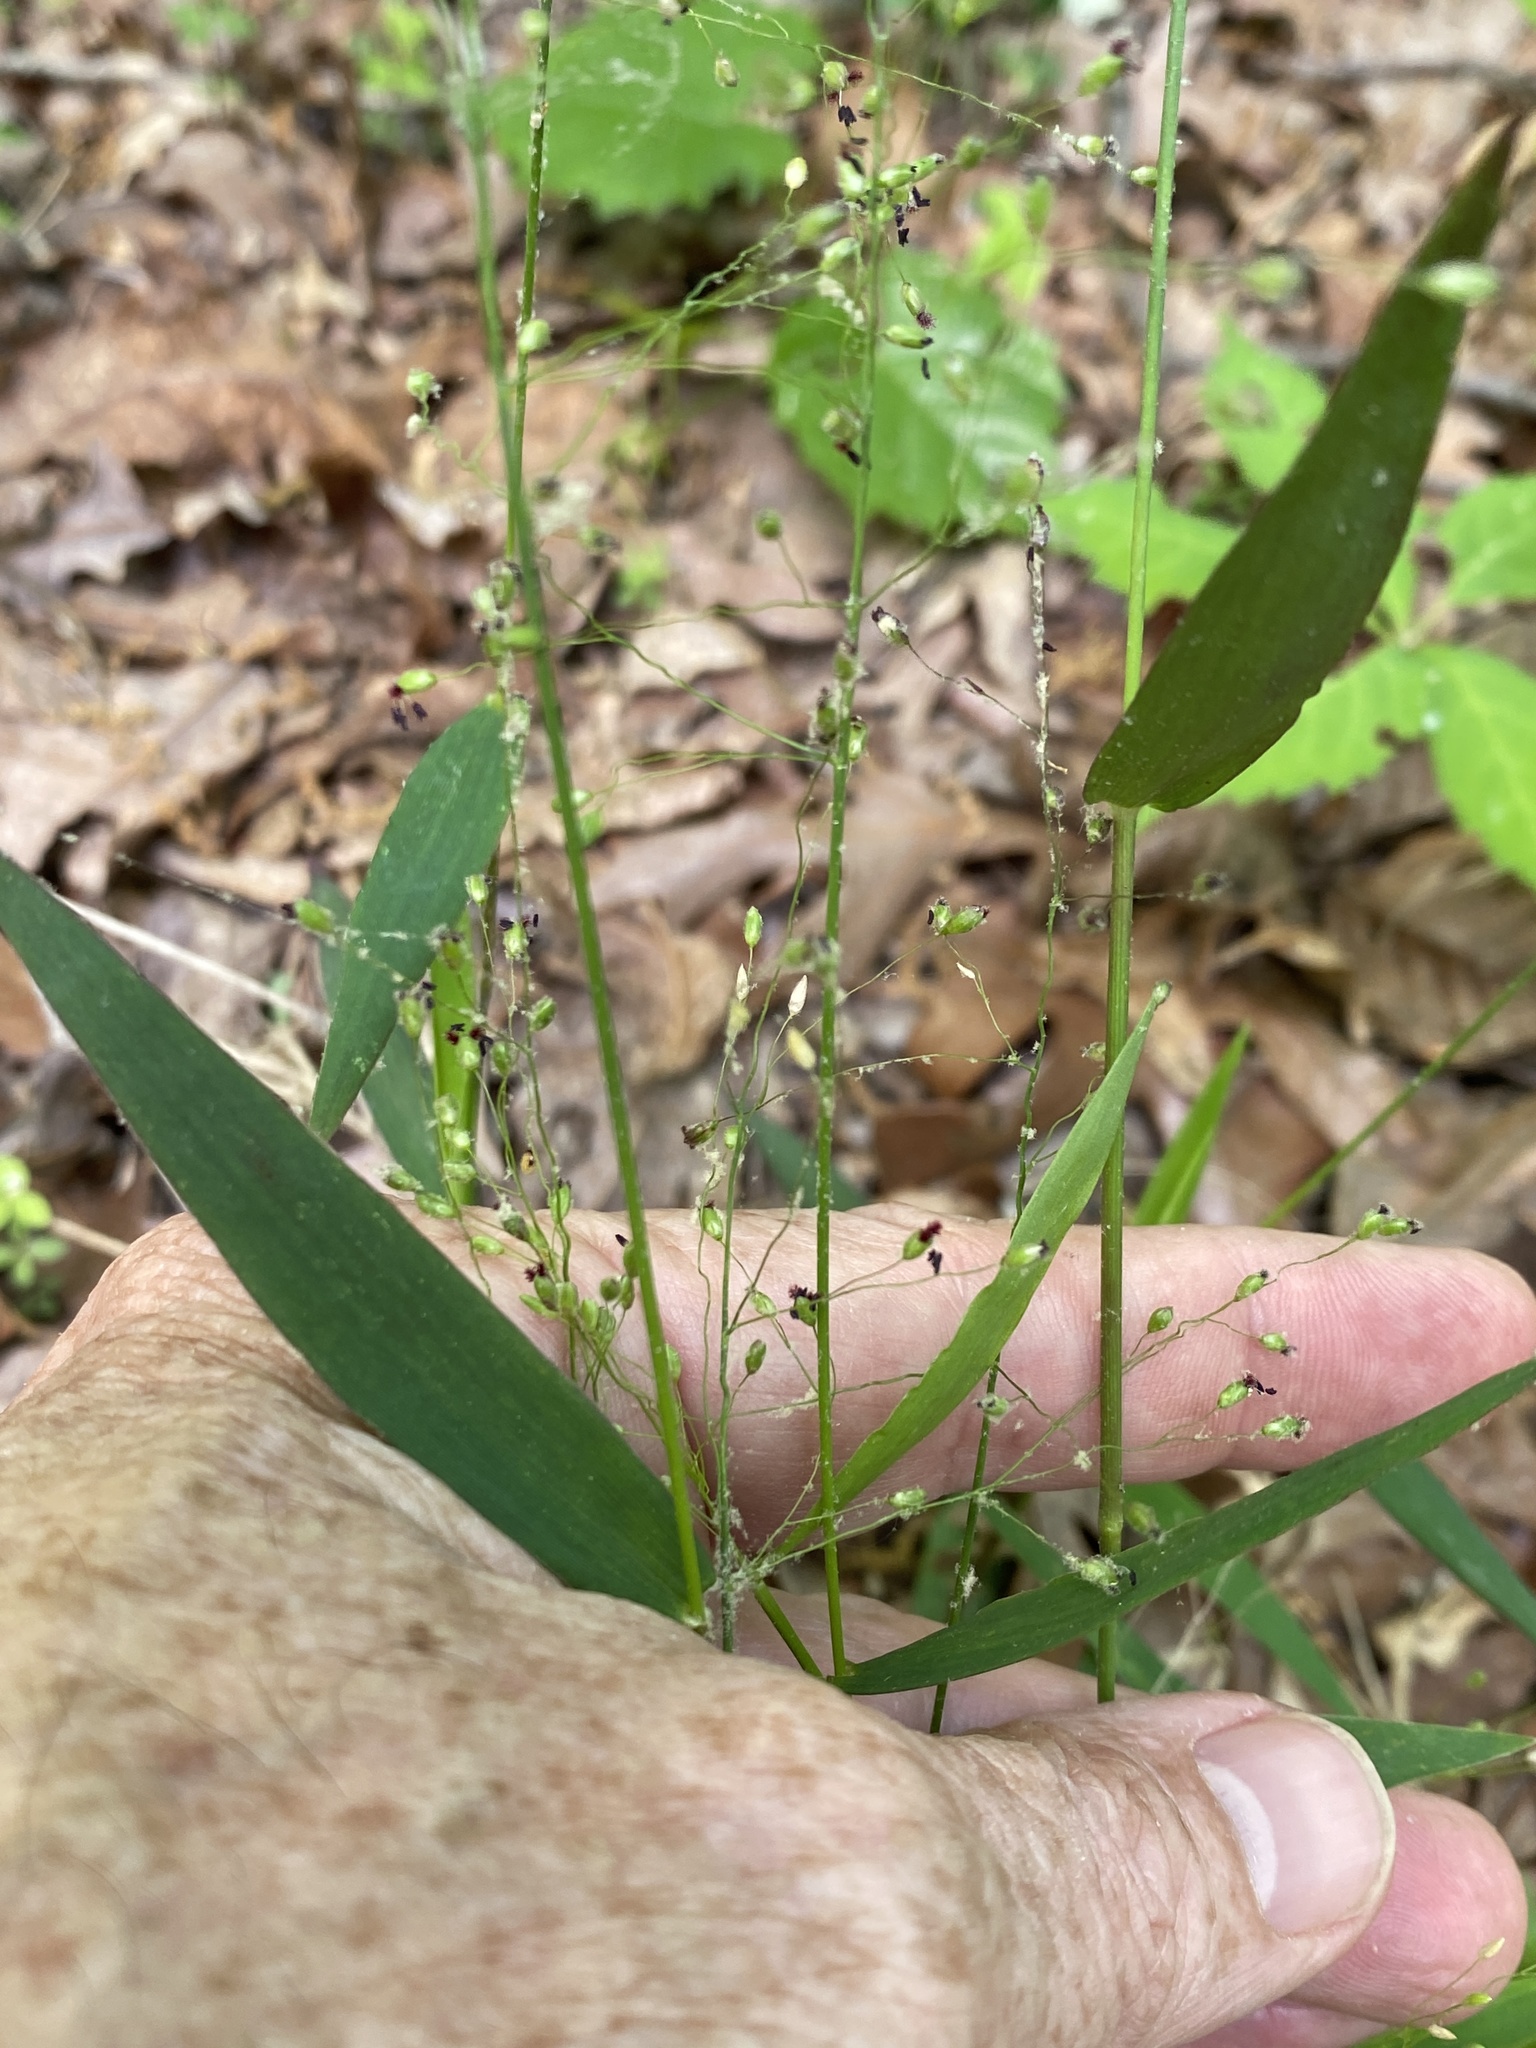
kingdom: Plantae
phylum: Tracheophyta
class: Liliopsida
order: Poales
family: Poaceae
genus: Dichanthelium
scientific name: Dichanthelium commutatum
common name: Variable witchgrass
